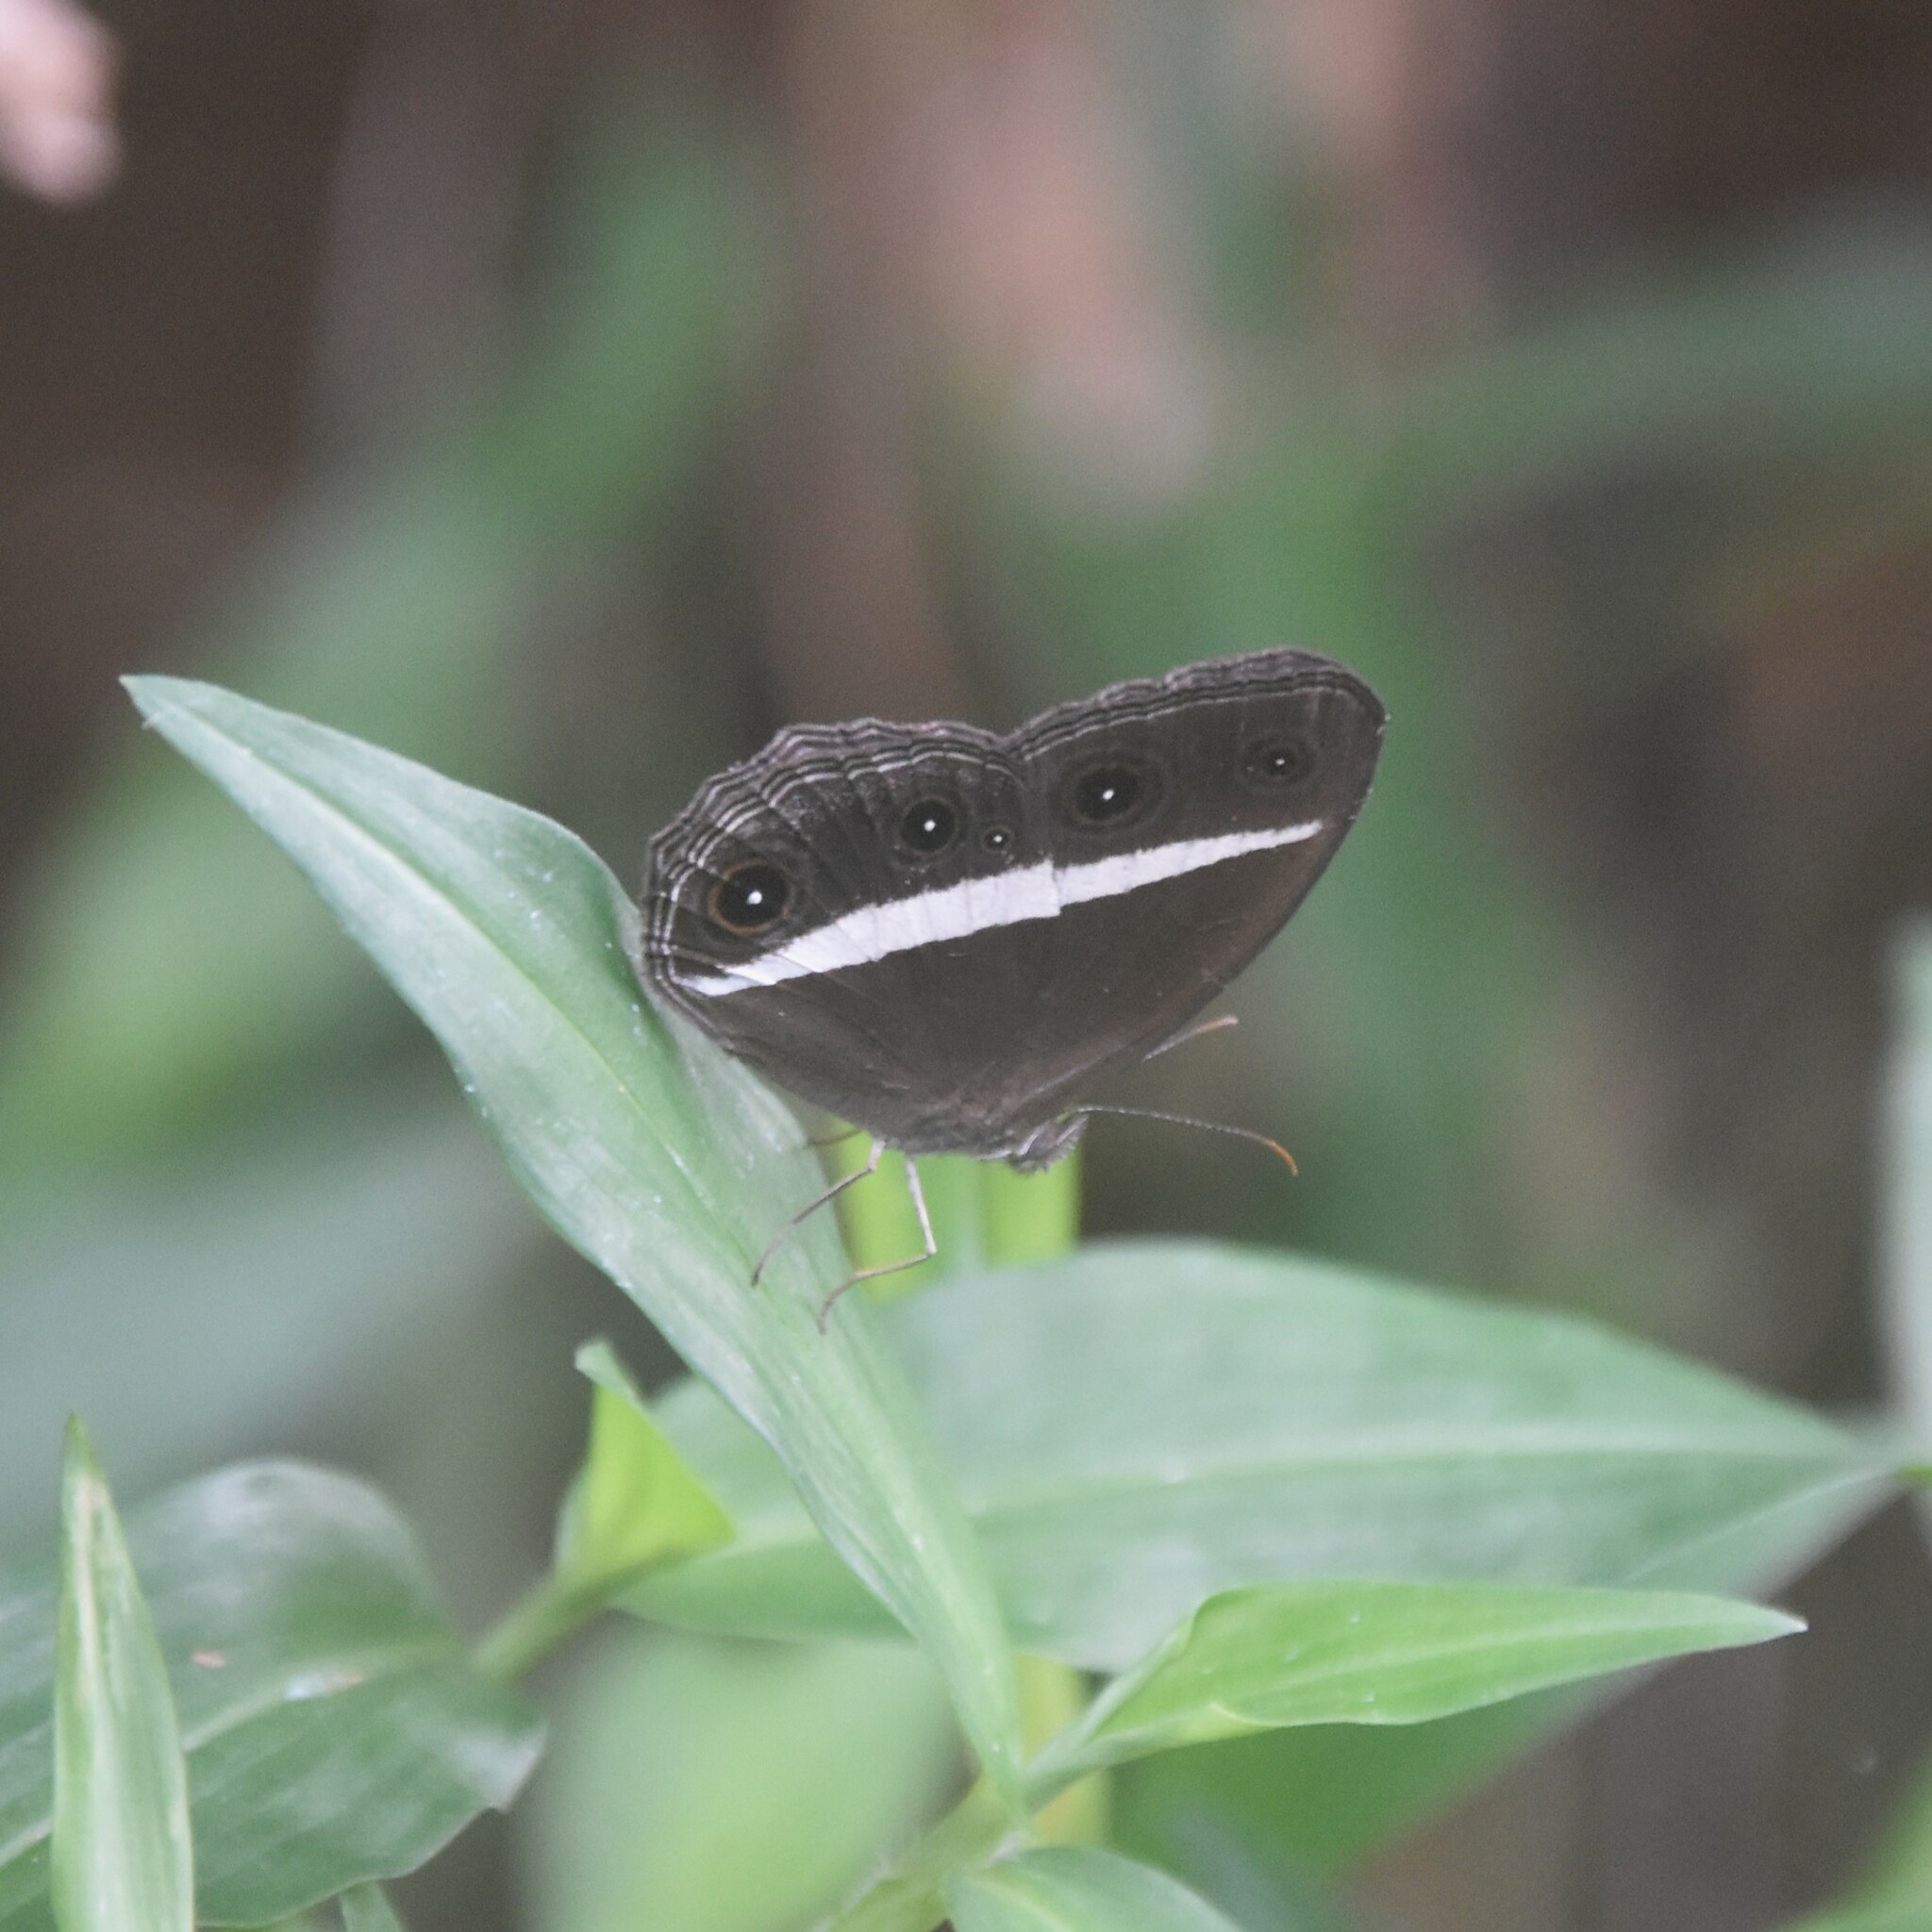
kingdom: Animalia
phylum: Arthropoda
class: Insecta
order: Lepidoptera
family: Nymphalidae
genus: Orsotriaena
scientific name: Orsotriaena medus
